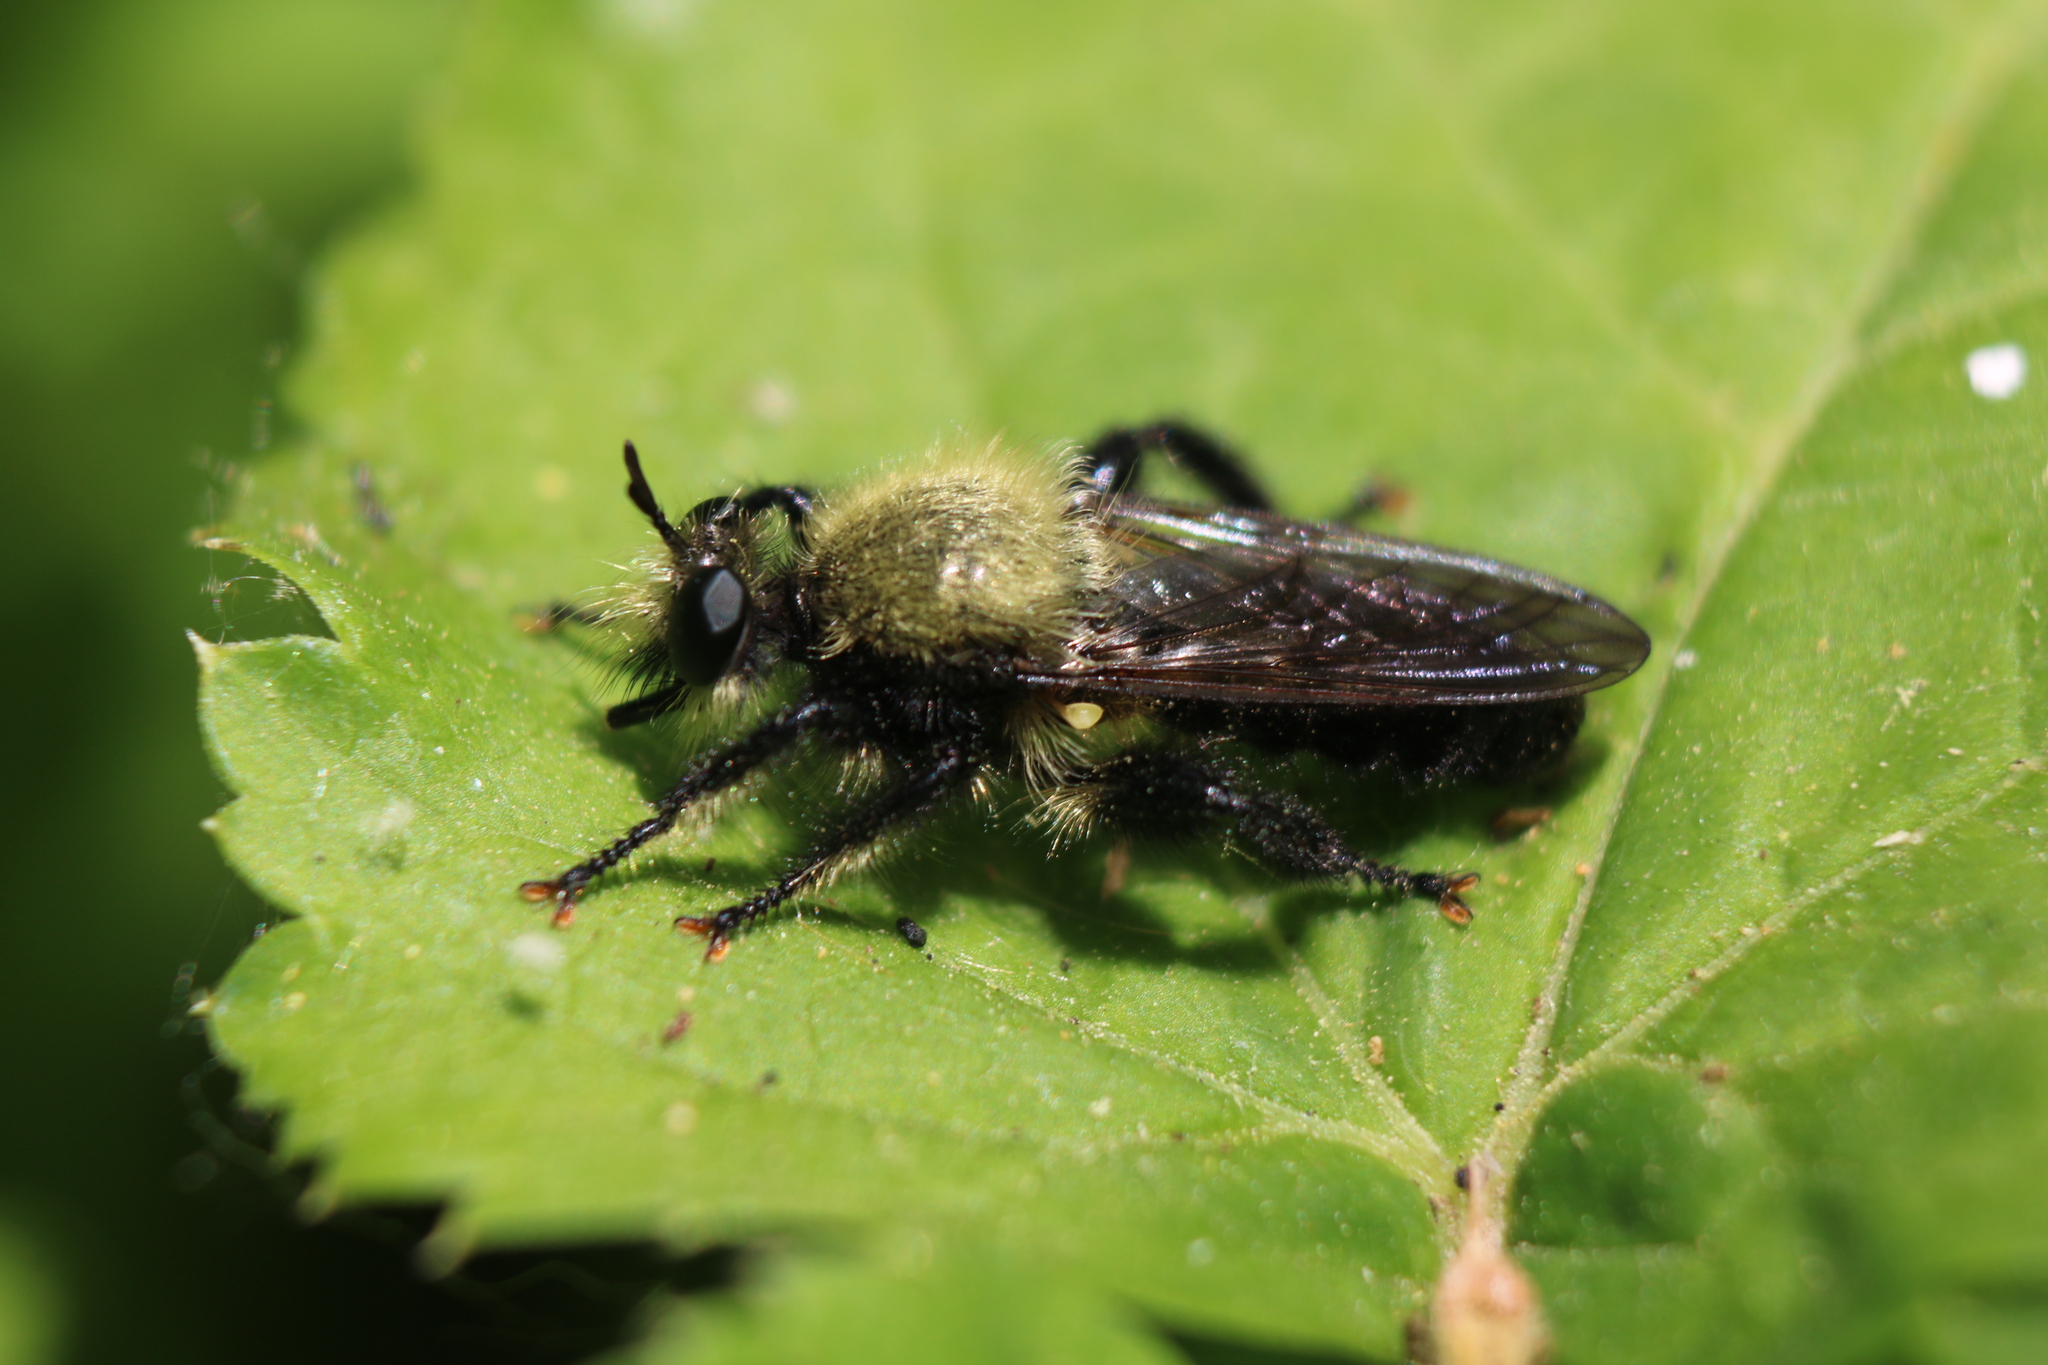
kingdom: Animalia
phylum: Arthropoda
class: Insecta
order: Diptera
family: Asilidae
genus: Laphria
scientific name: Laphria flavicollis
